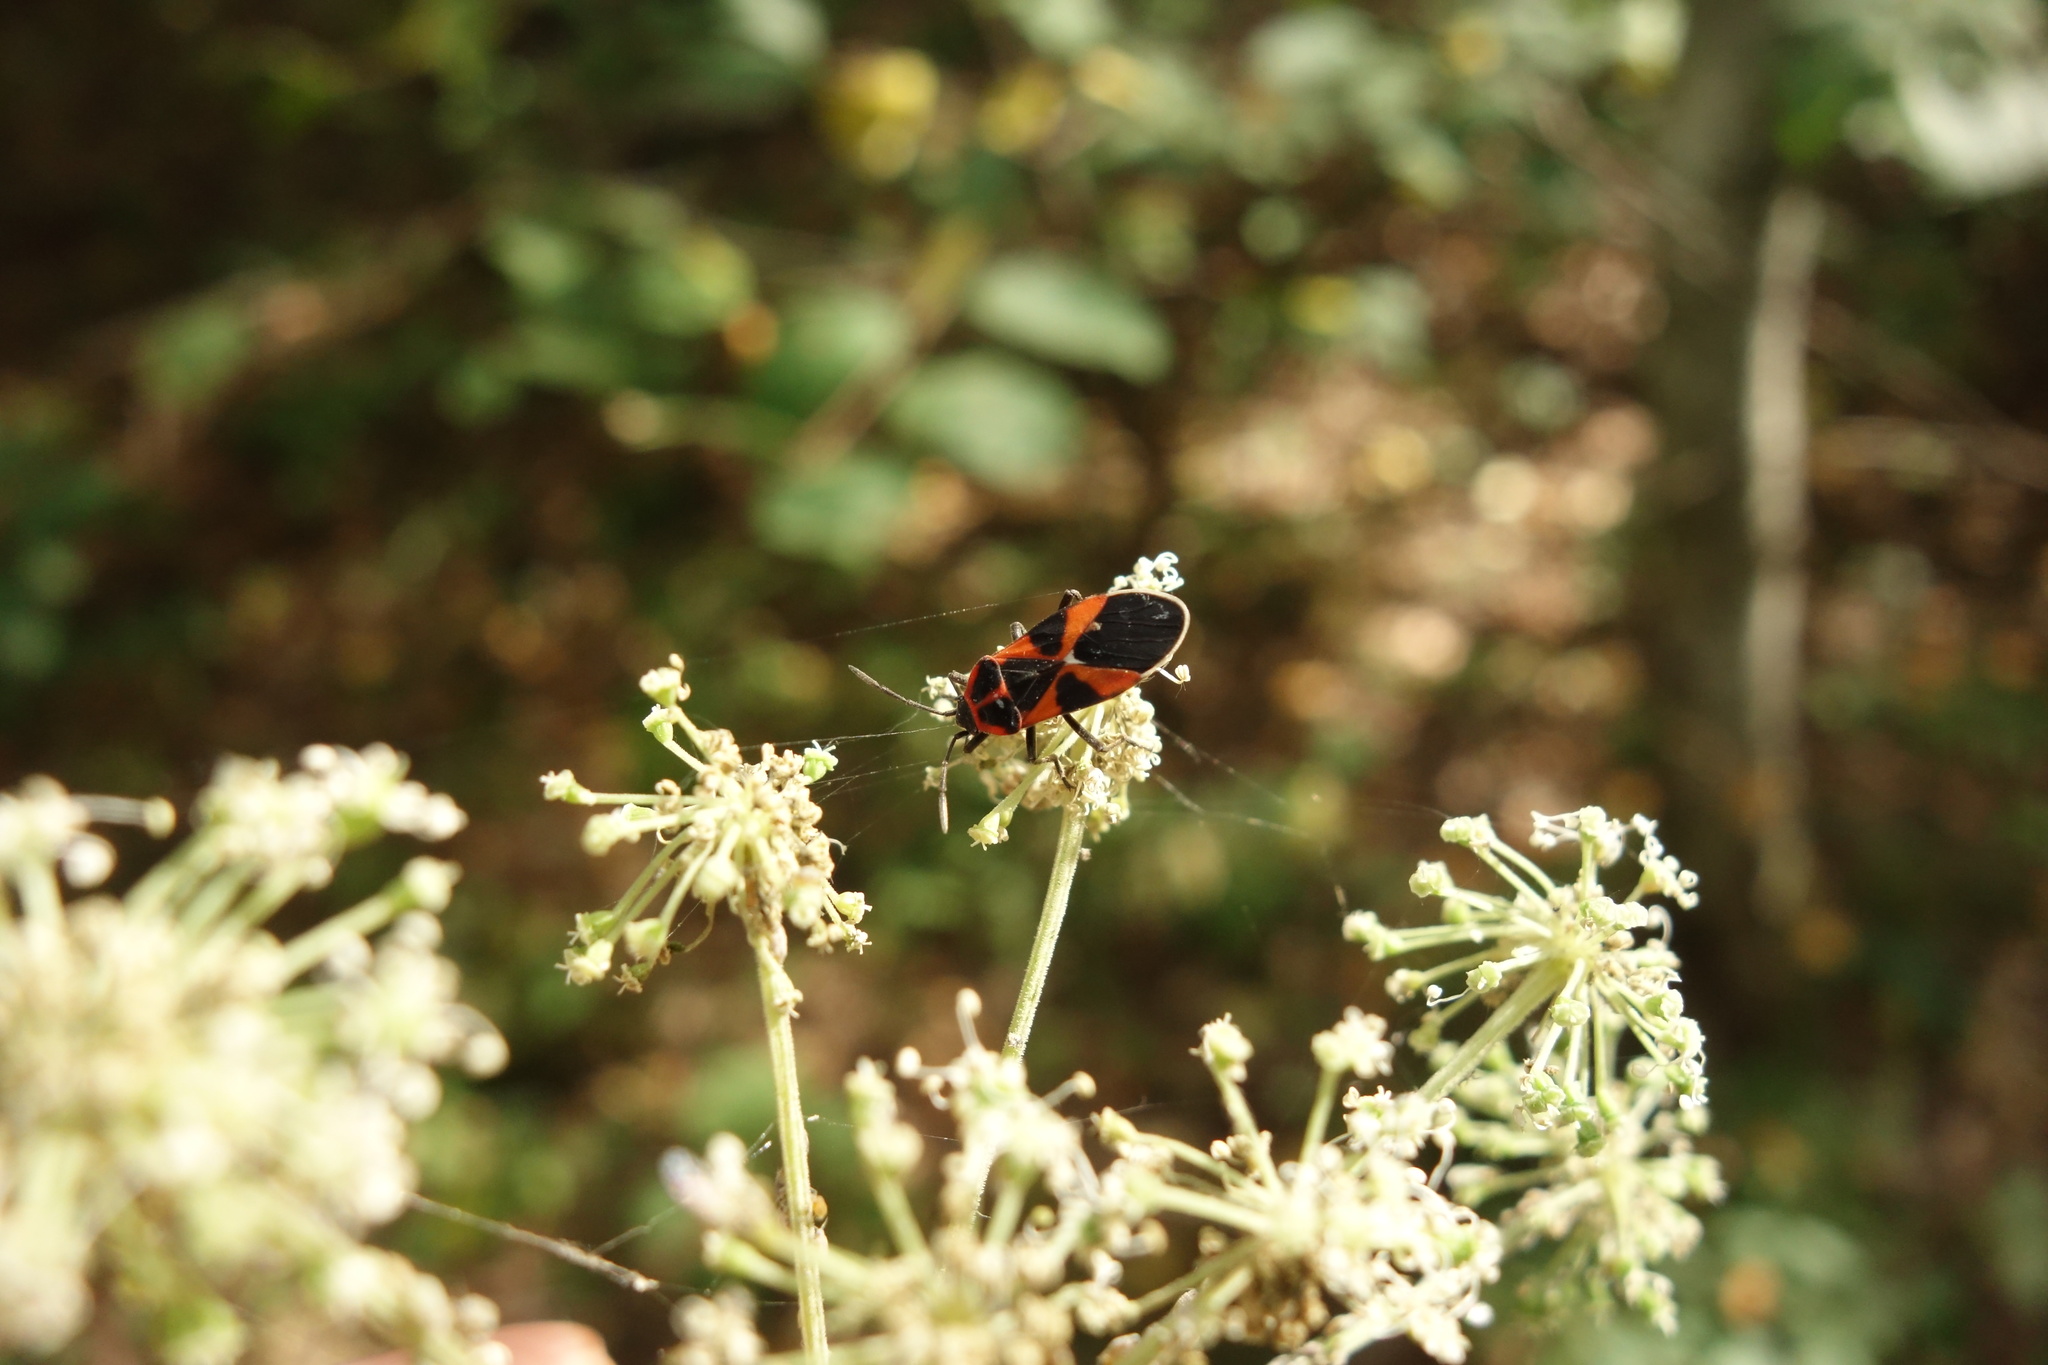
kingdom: Animalia
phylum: Arthropoda
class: Insecta
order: Hemiptera
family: Lygaeidae
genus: Tropidothorax
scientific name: Tropidothorax leucopterus
